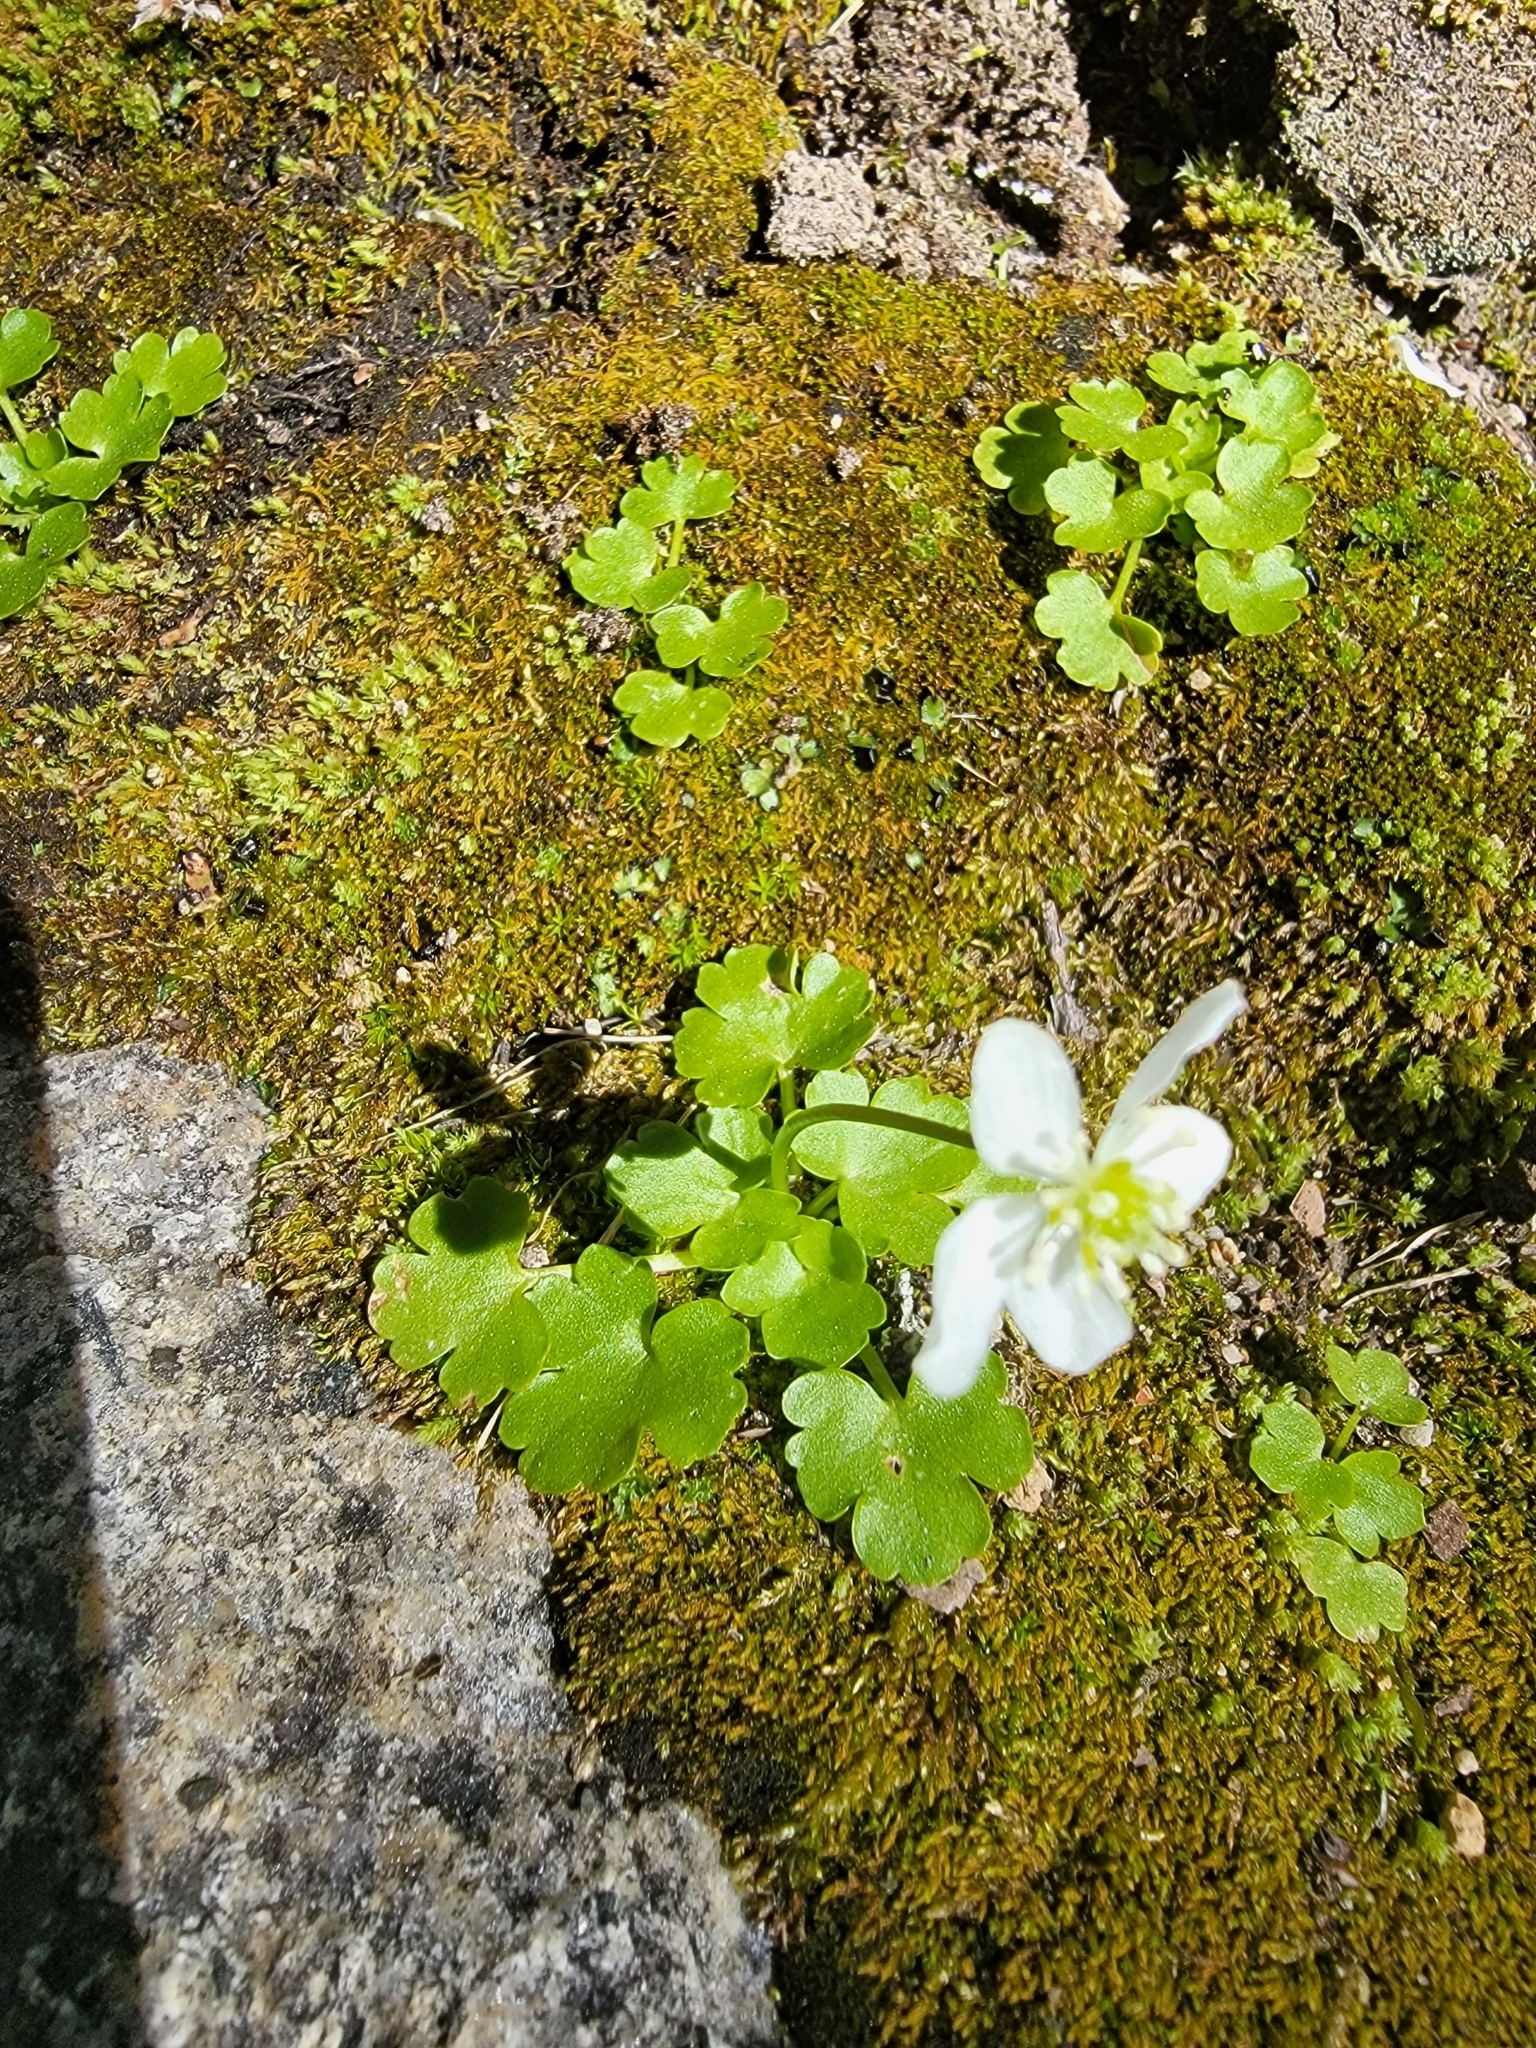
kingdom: Plantae
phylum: Tracheophyta
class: Magnoliopsida
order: Ranunculales
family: Ranunculaceae
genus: Kumlienia
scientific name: Kumlienia hystricula
